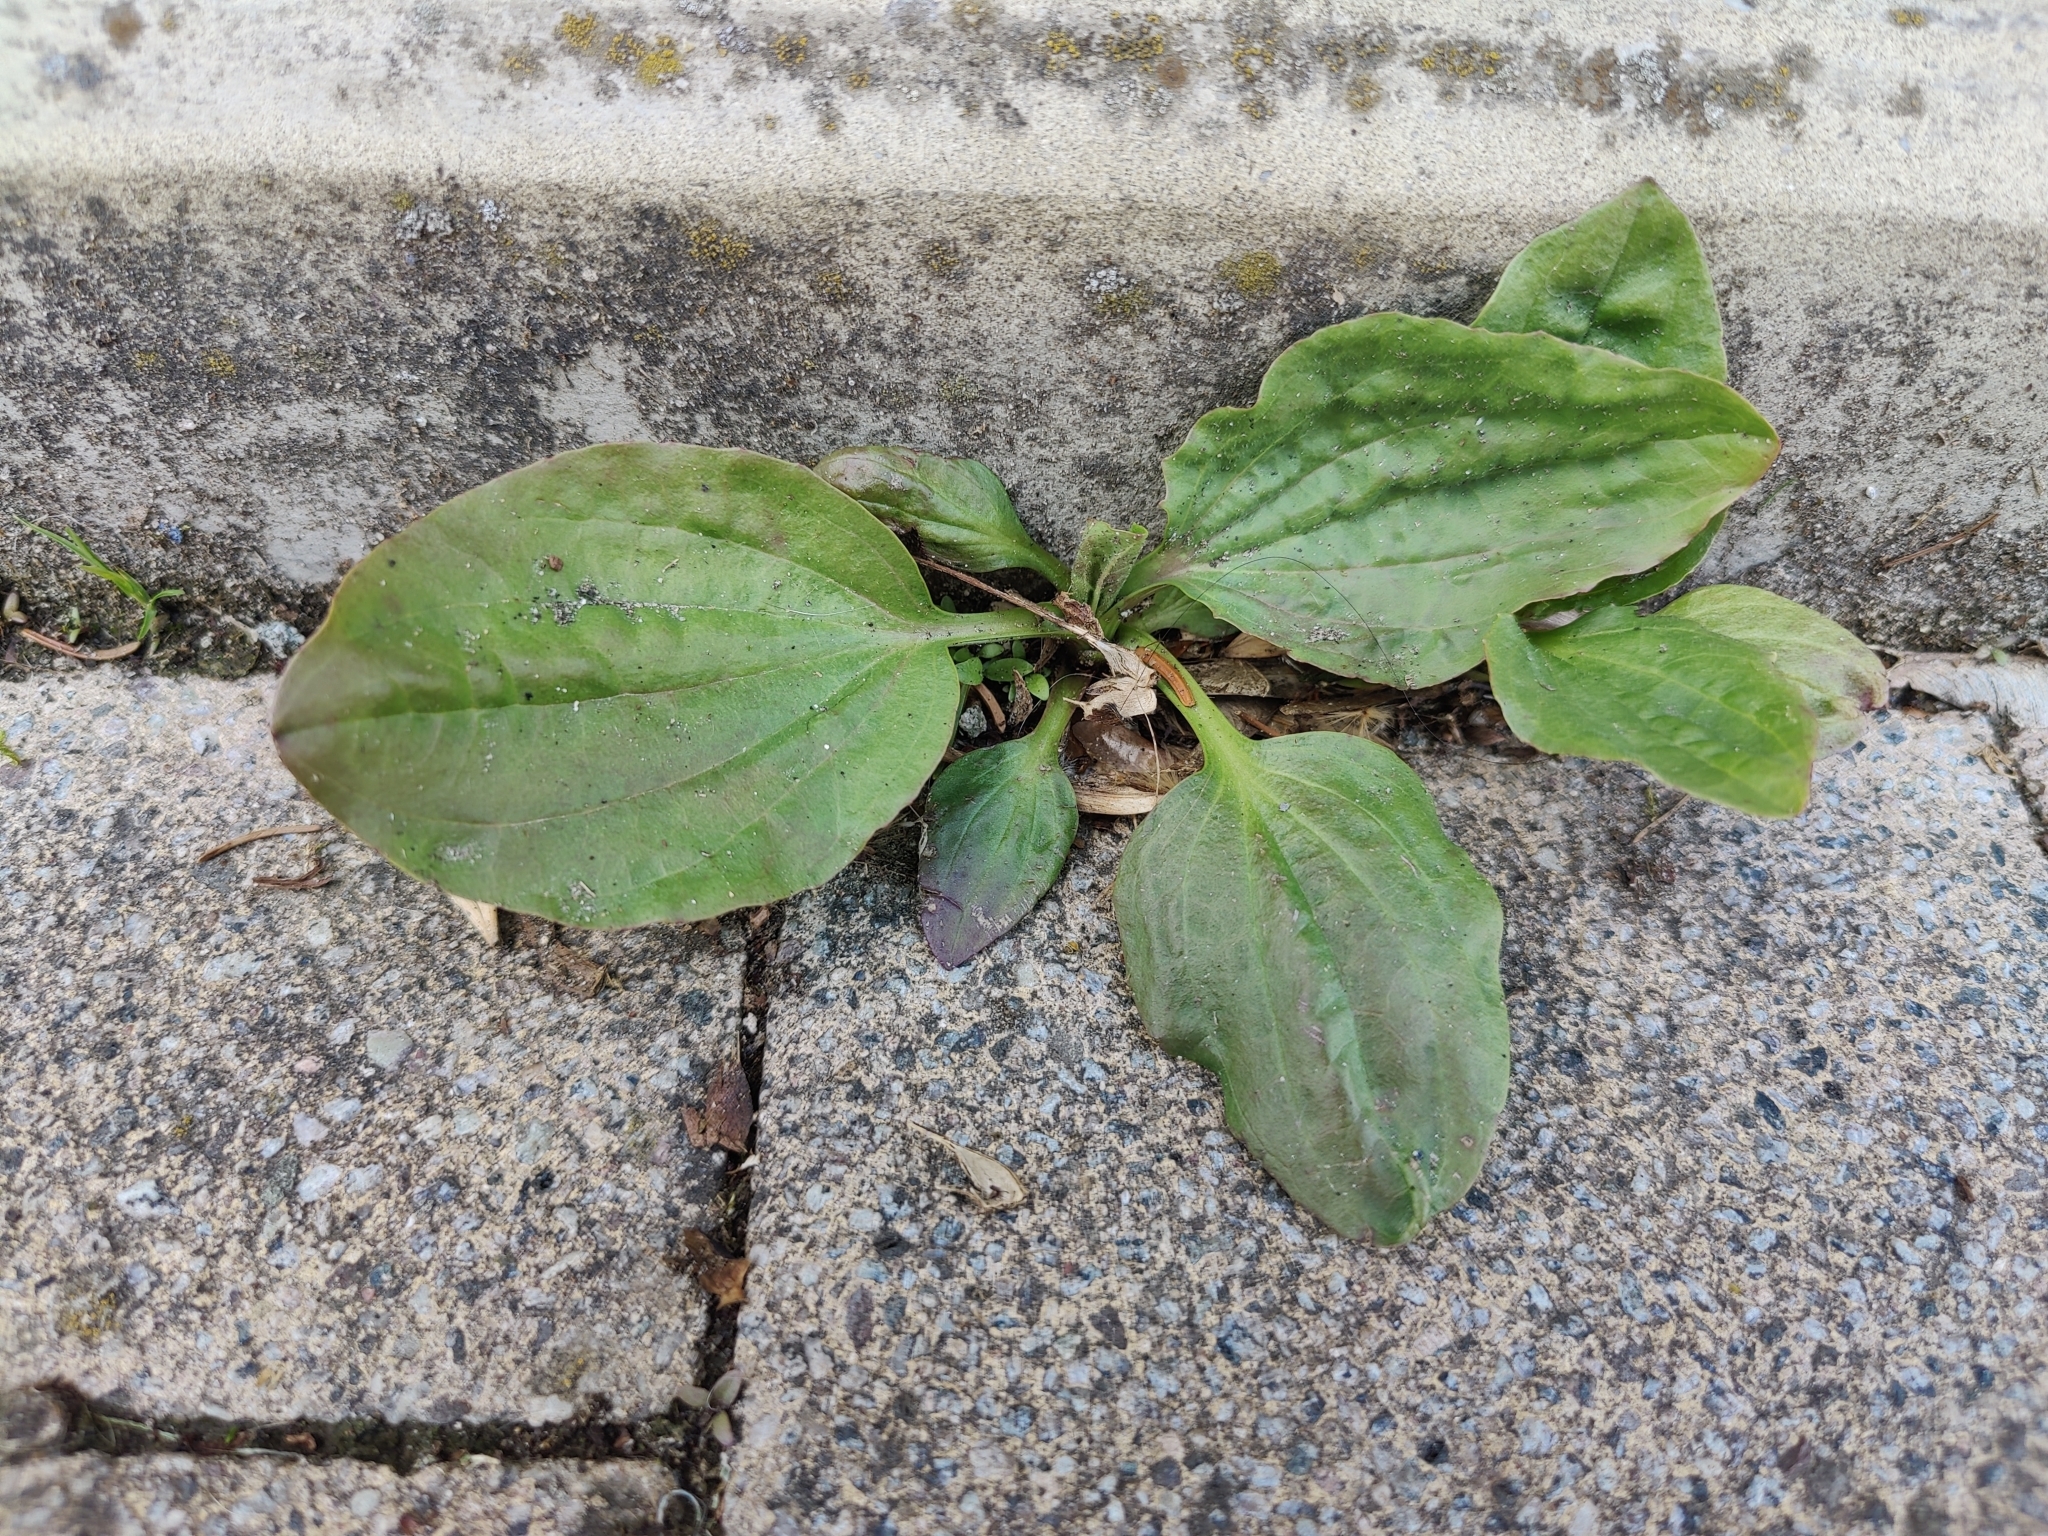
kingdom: Plantae
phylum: Tracheophyta
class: Magnoliopsida
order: Lamiales
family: Plantaginaceae
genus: Plantago
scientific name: Plantago major
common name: Common plantain
